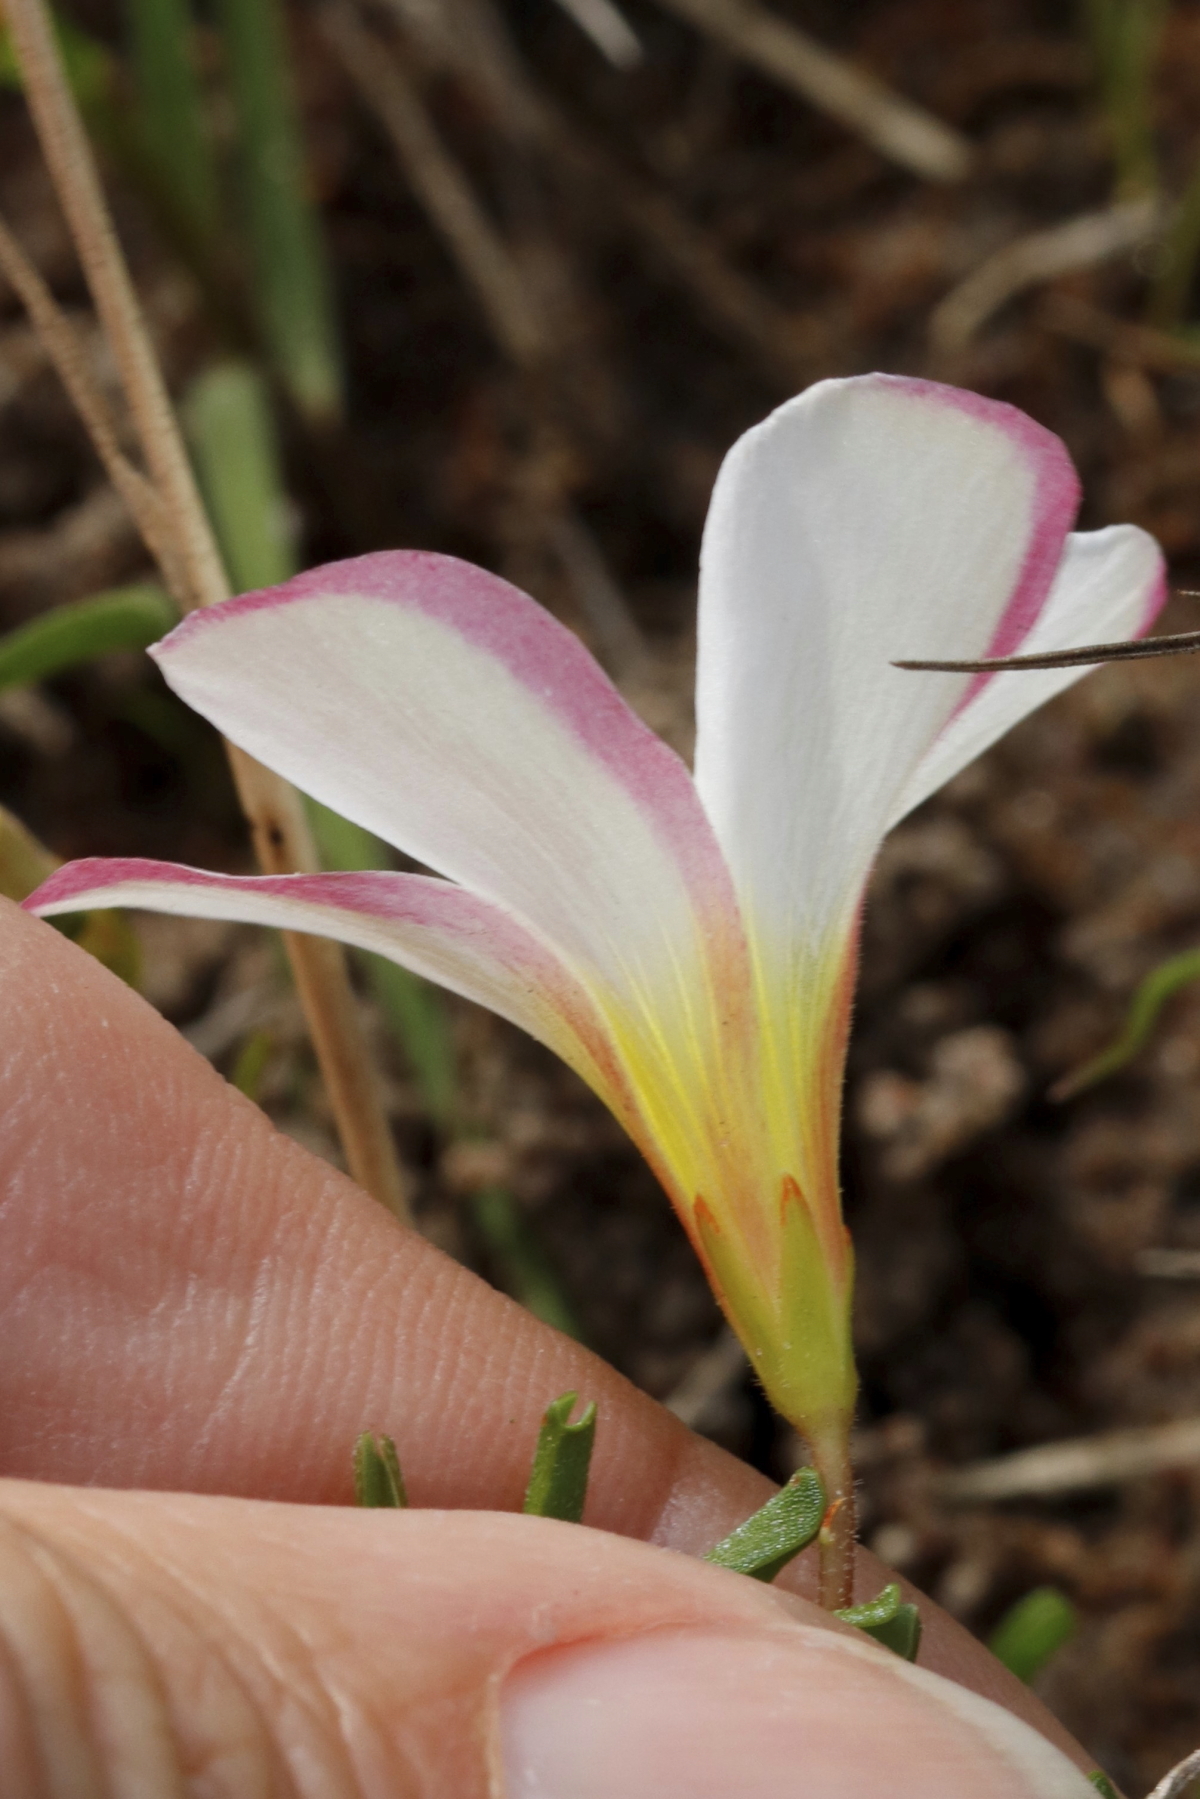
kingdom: Plantae
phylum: Tracheophyta
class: Magnoliopsida
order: Oxalidales
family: Oxalidaceae
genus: Oxalis
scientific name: Oxalis versicolor
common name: Peppermint rock oxalis
